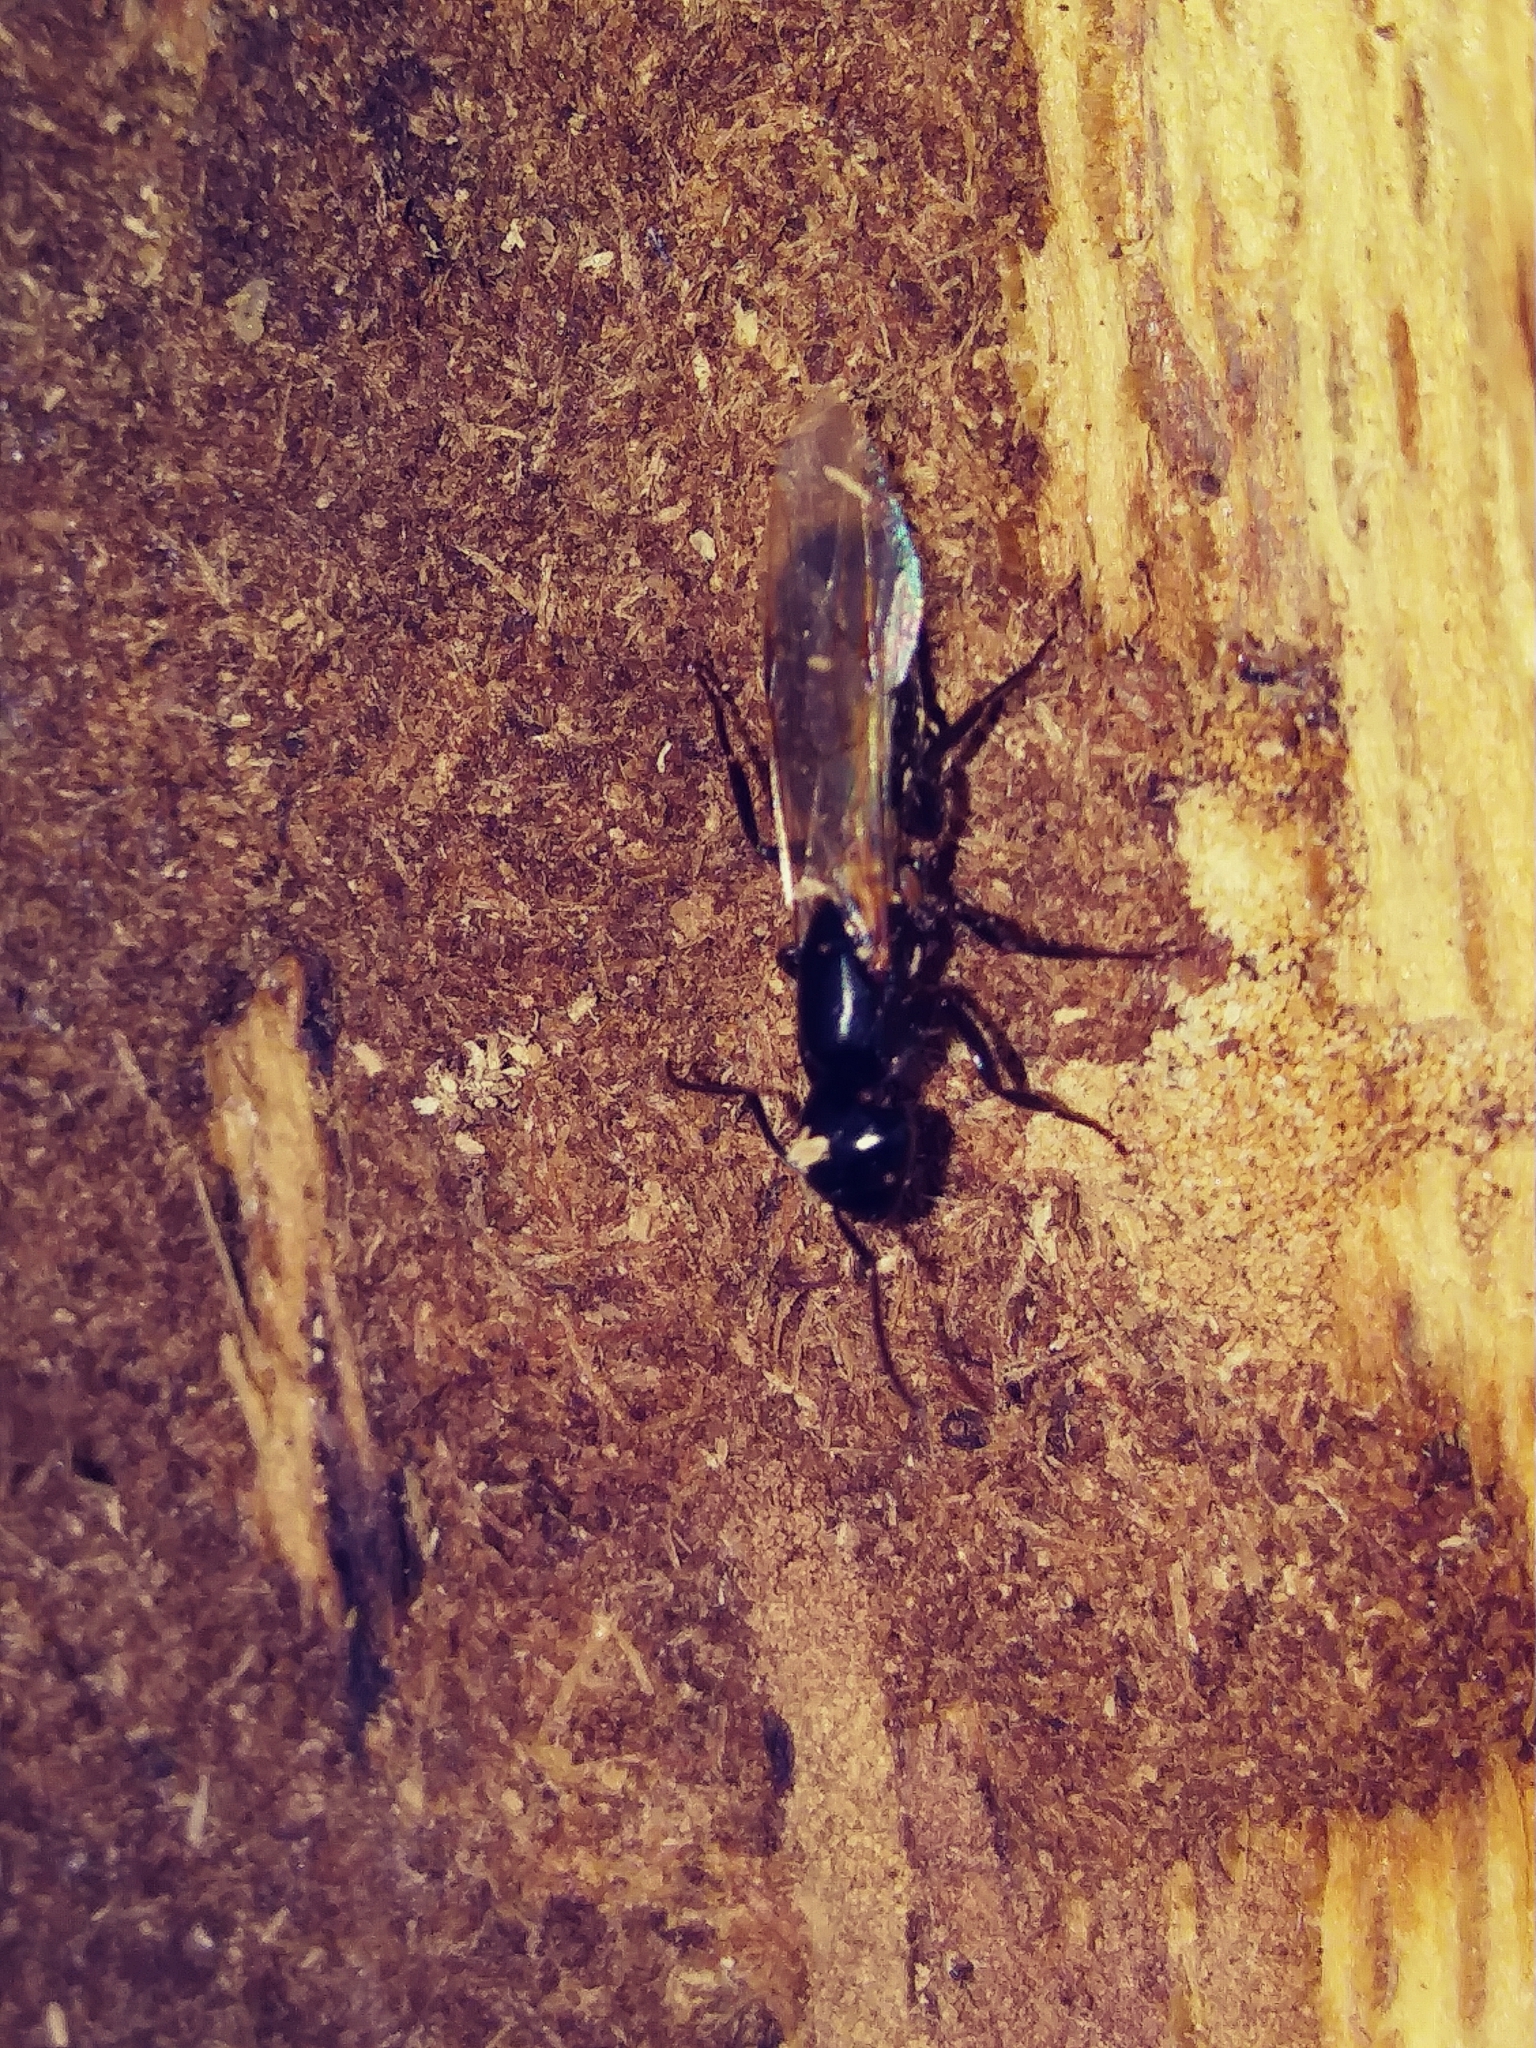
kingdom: Animalia
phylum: Arthropoda
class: Insecta
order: Hymenoptera
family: Formicidae
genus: Camponotus
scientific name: Camponotus pennsylvanicus
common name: Black carpenter ant
